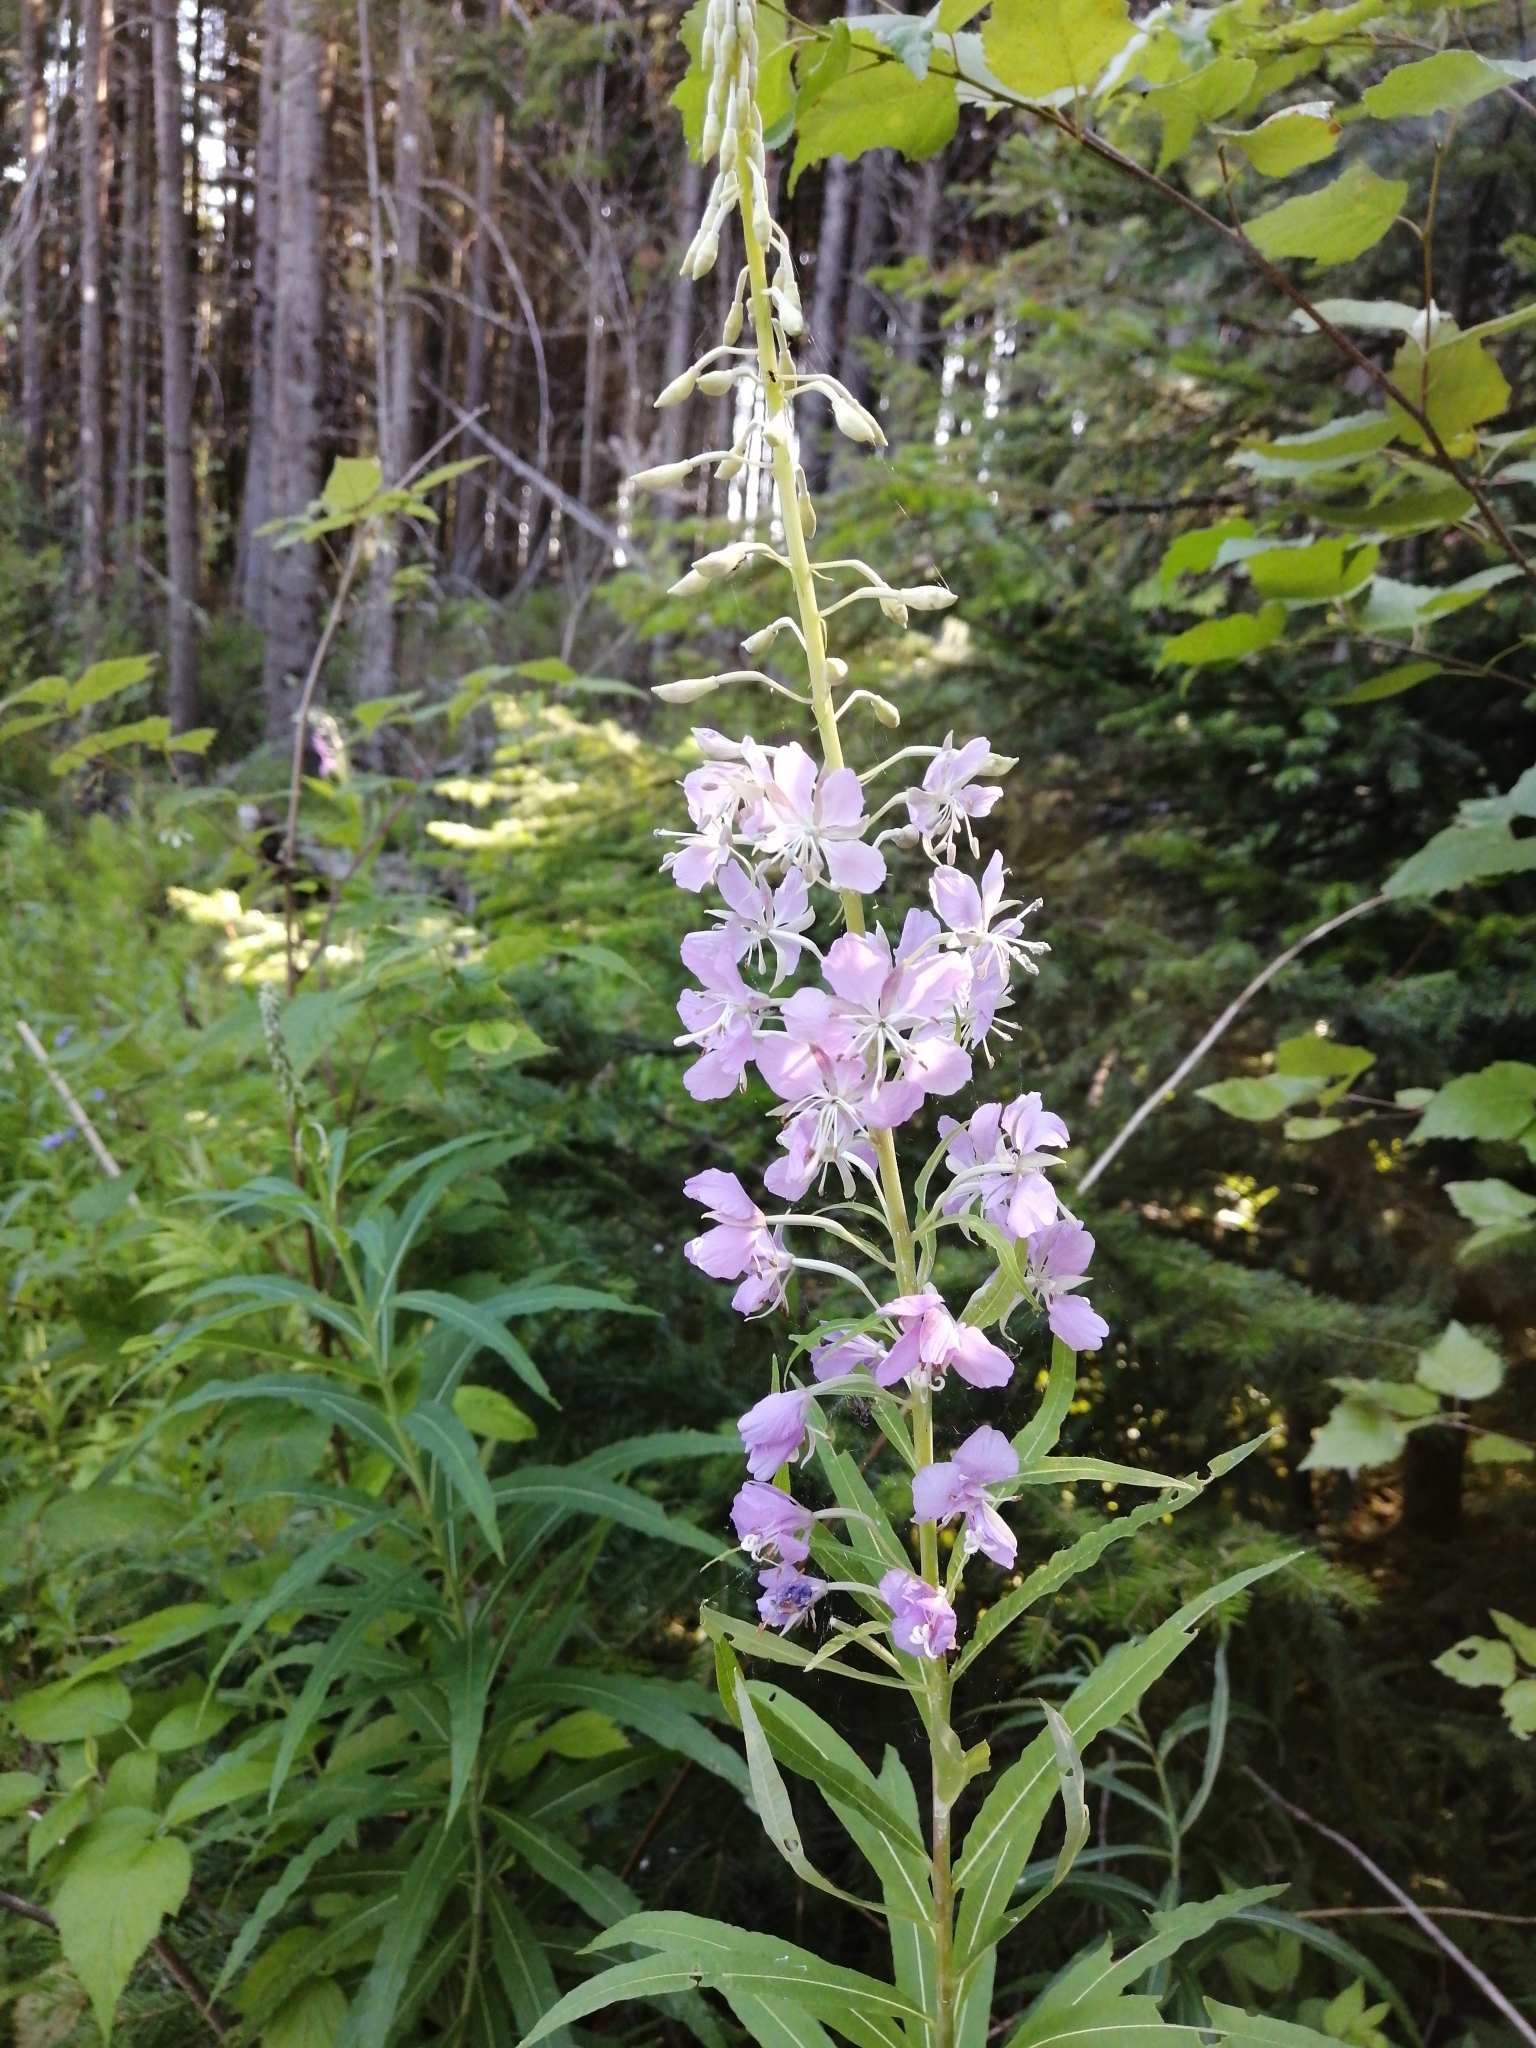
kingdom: Plantae
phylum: Tracheophyta
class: Magnoliopsida
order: Myrtales
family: Onagraceae
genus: Chamaenerion
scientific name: Chamaenerion angustifolium
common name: Fireweed
